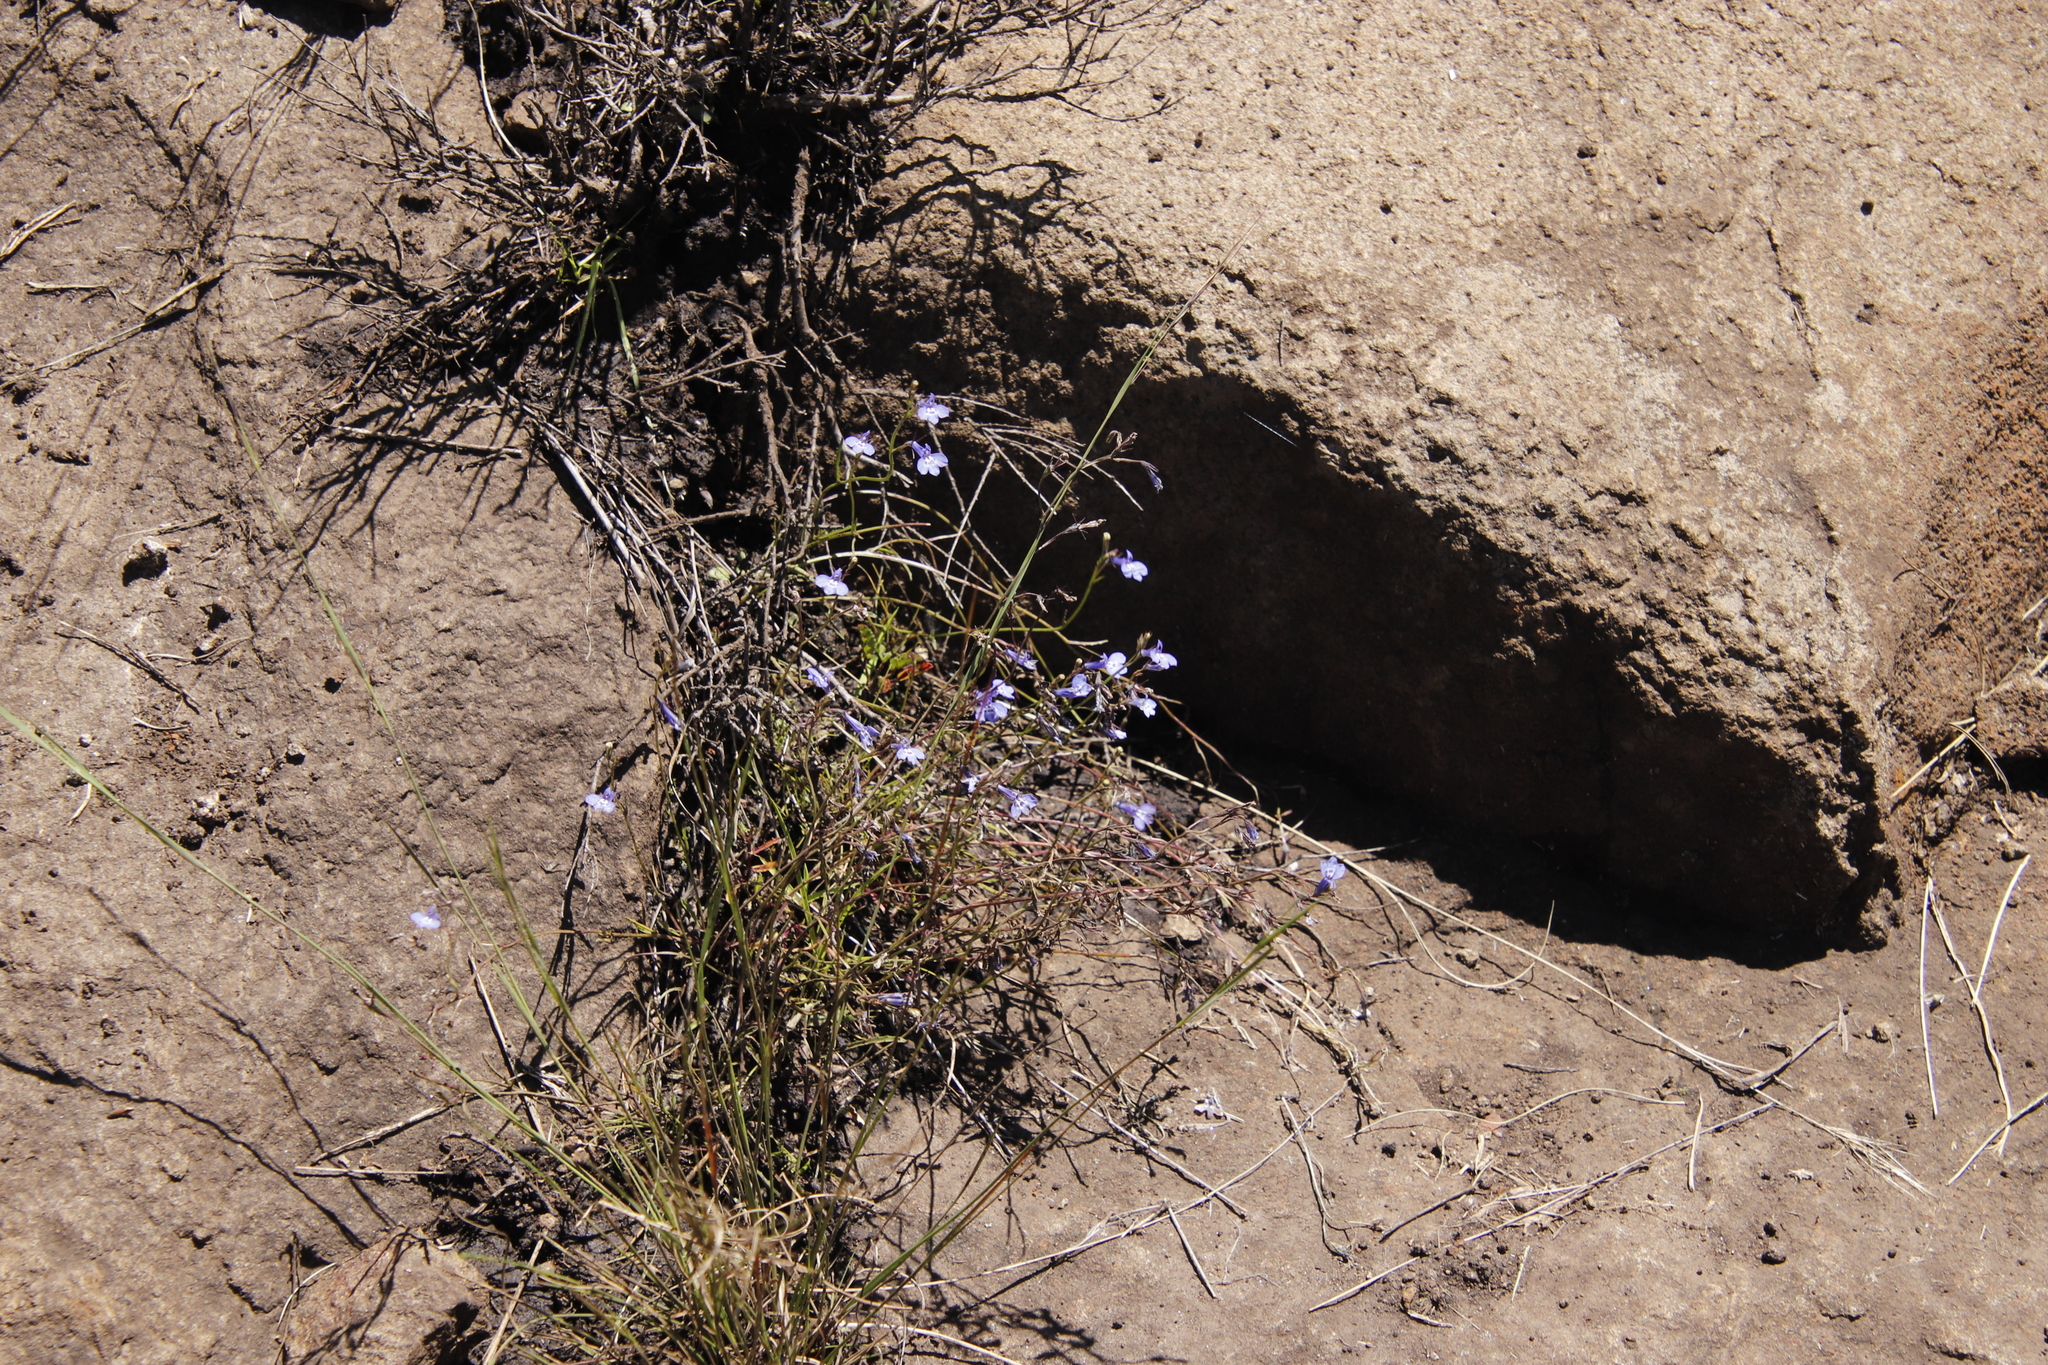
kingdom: Plantae
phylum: Tracheophyta
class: Magnoliopsida
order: Asterales
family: Campanulaceae
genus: Lobelia
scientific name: Lobelia flaccida
